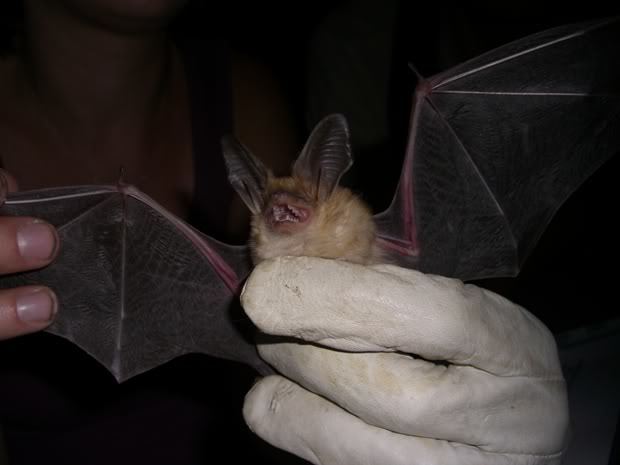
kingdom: Animalia
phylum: Chordata
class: Mammalia
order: Chiroptera
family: Vespertilionidae
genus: Antrozous
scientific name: Antrozous pallidus
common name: Pallid bat
